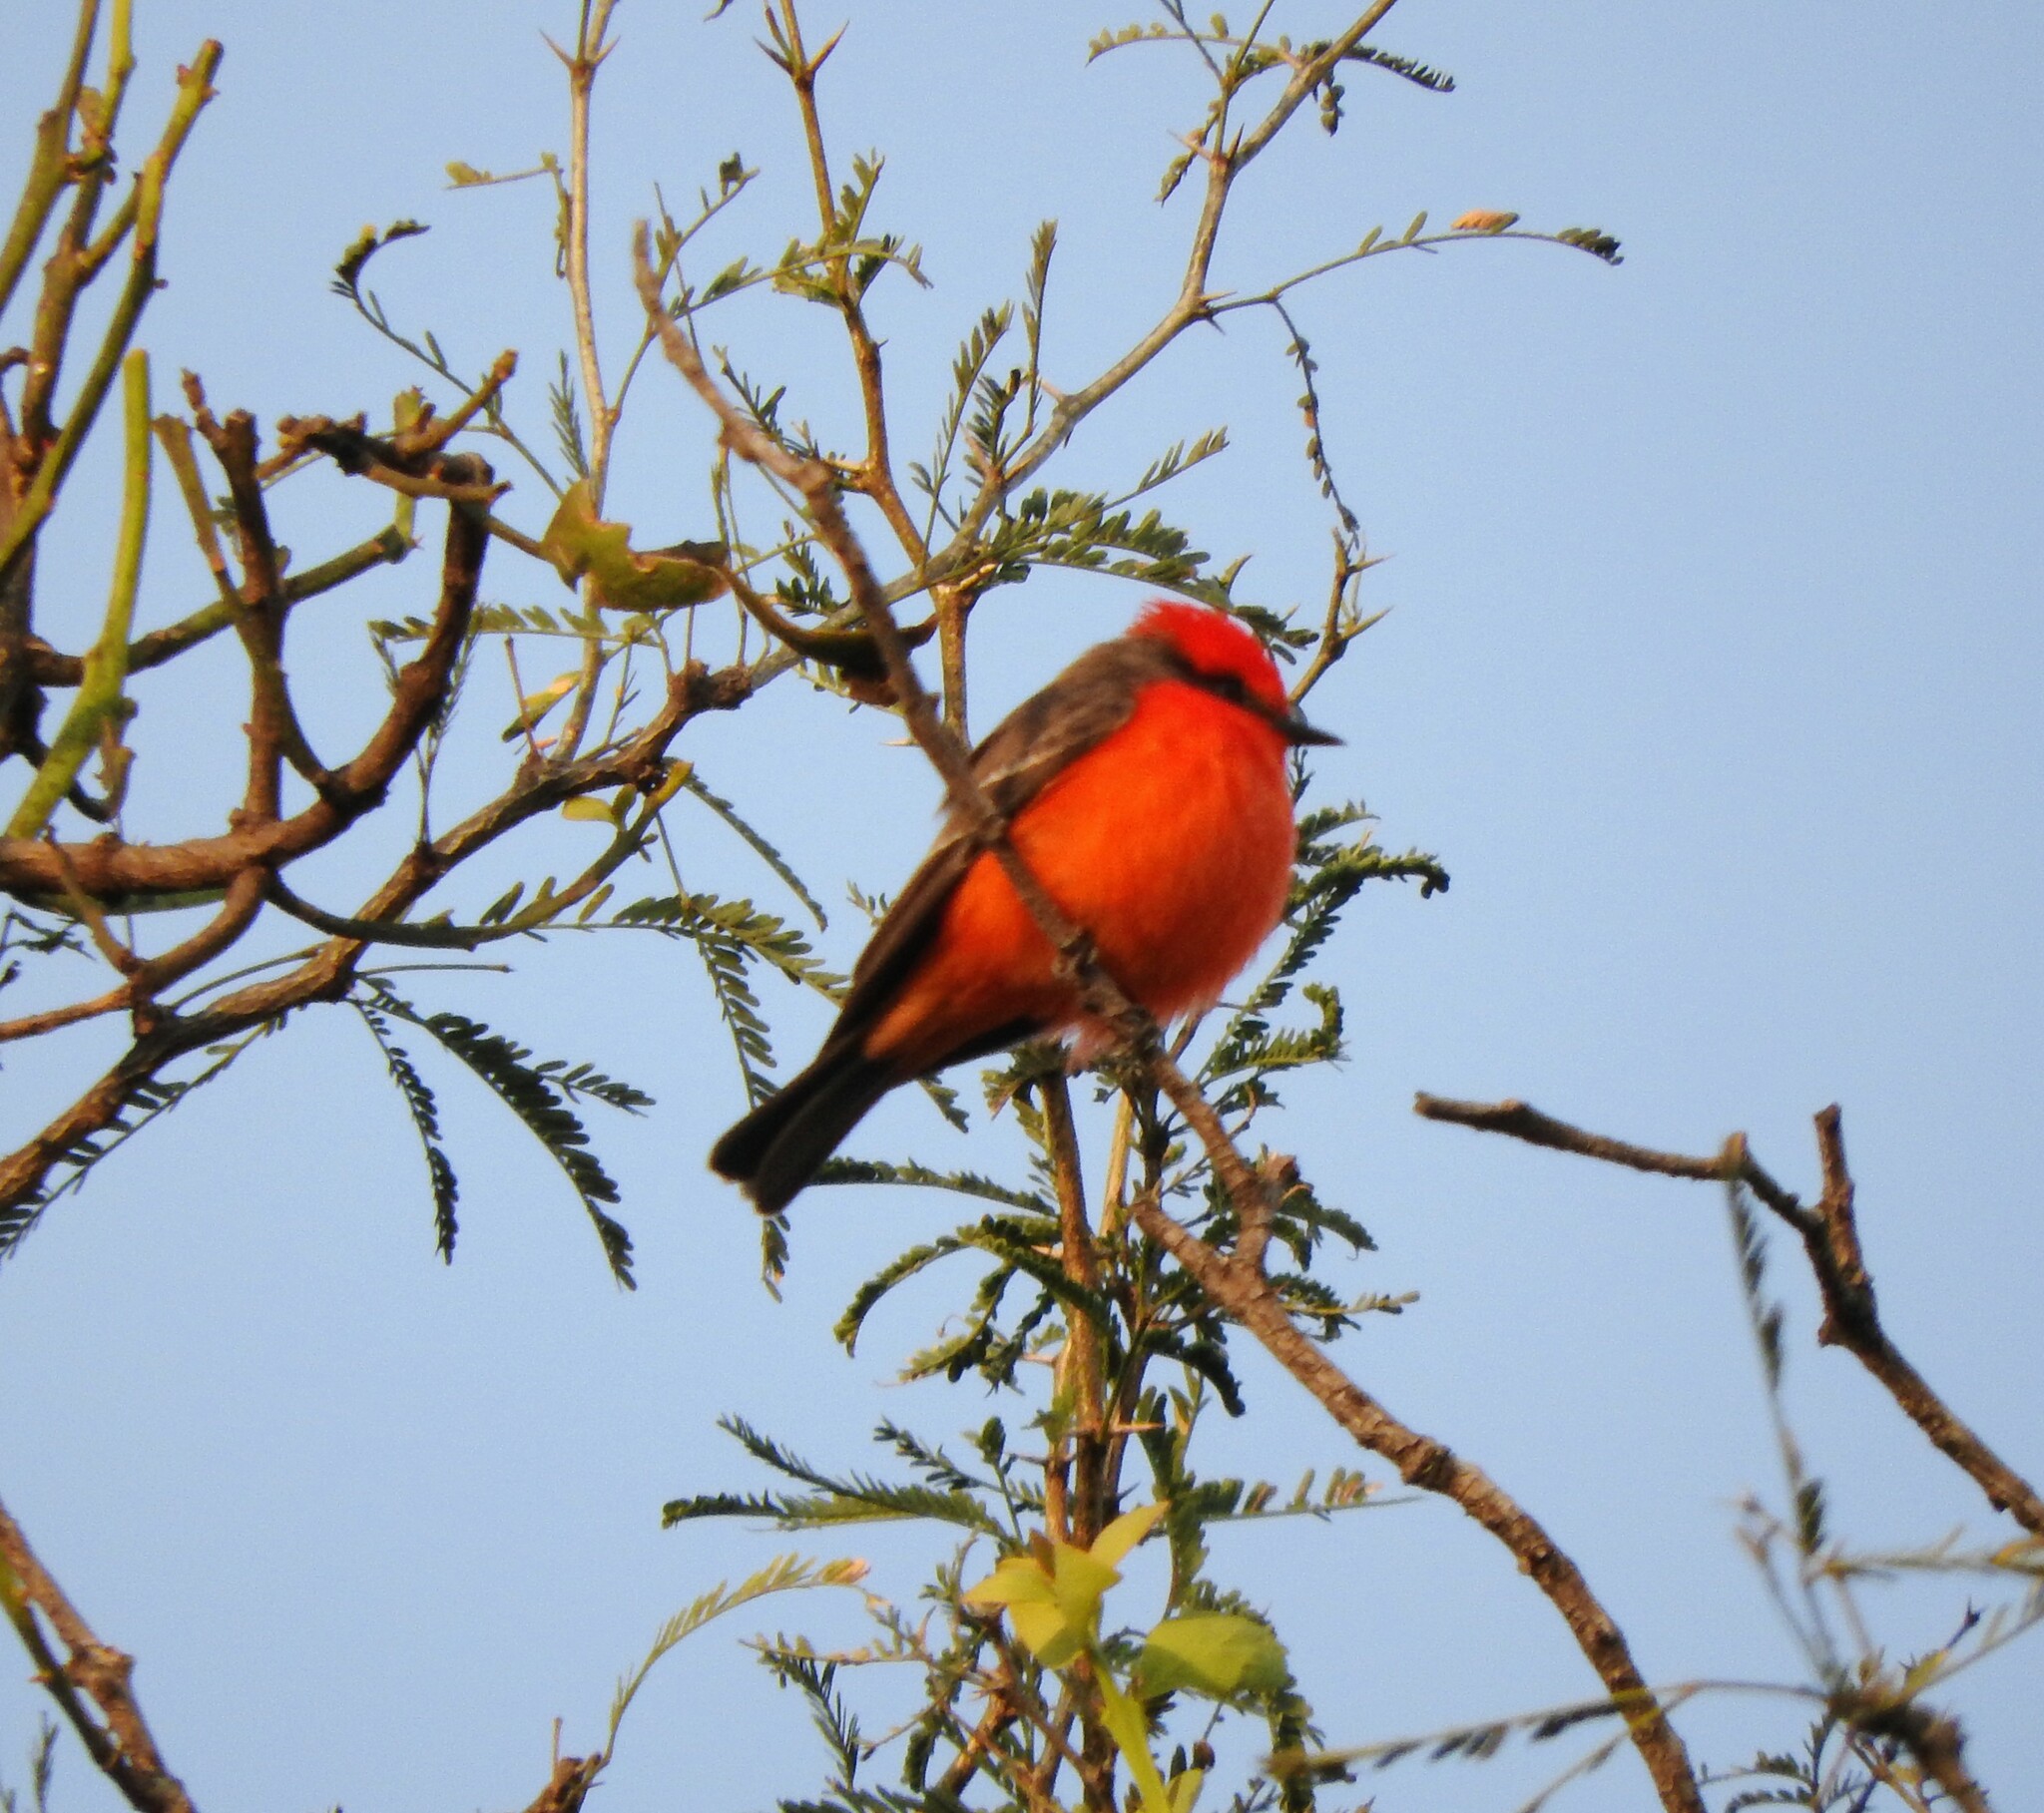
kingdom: Animalia
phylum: Chordata
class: Aves
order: Passeriformes
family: Tyrannidae
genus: Pyrocephalus
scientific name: Pyrocephalus rubinus
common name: Vermilion flycatcher
